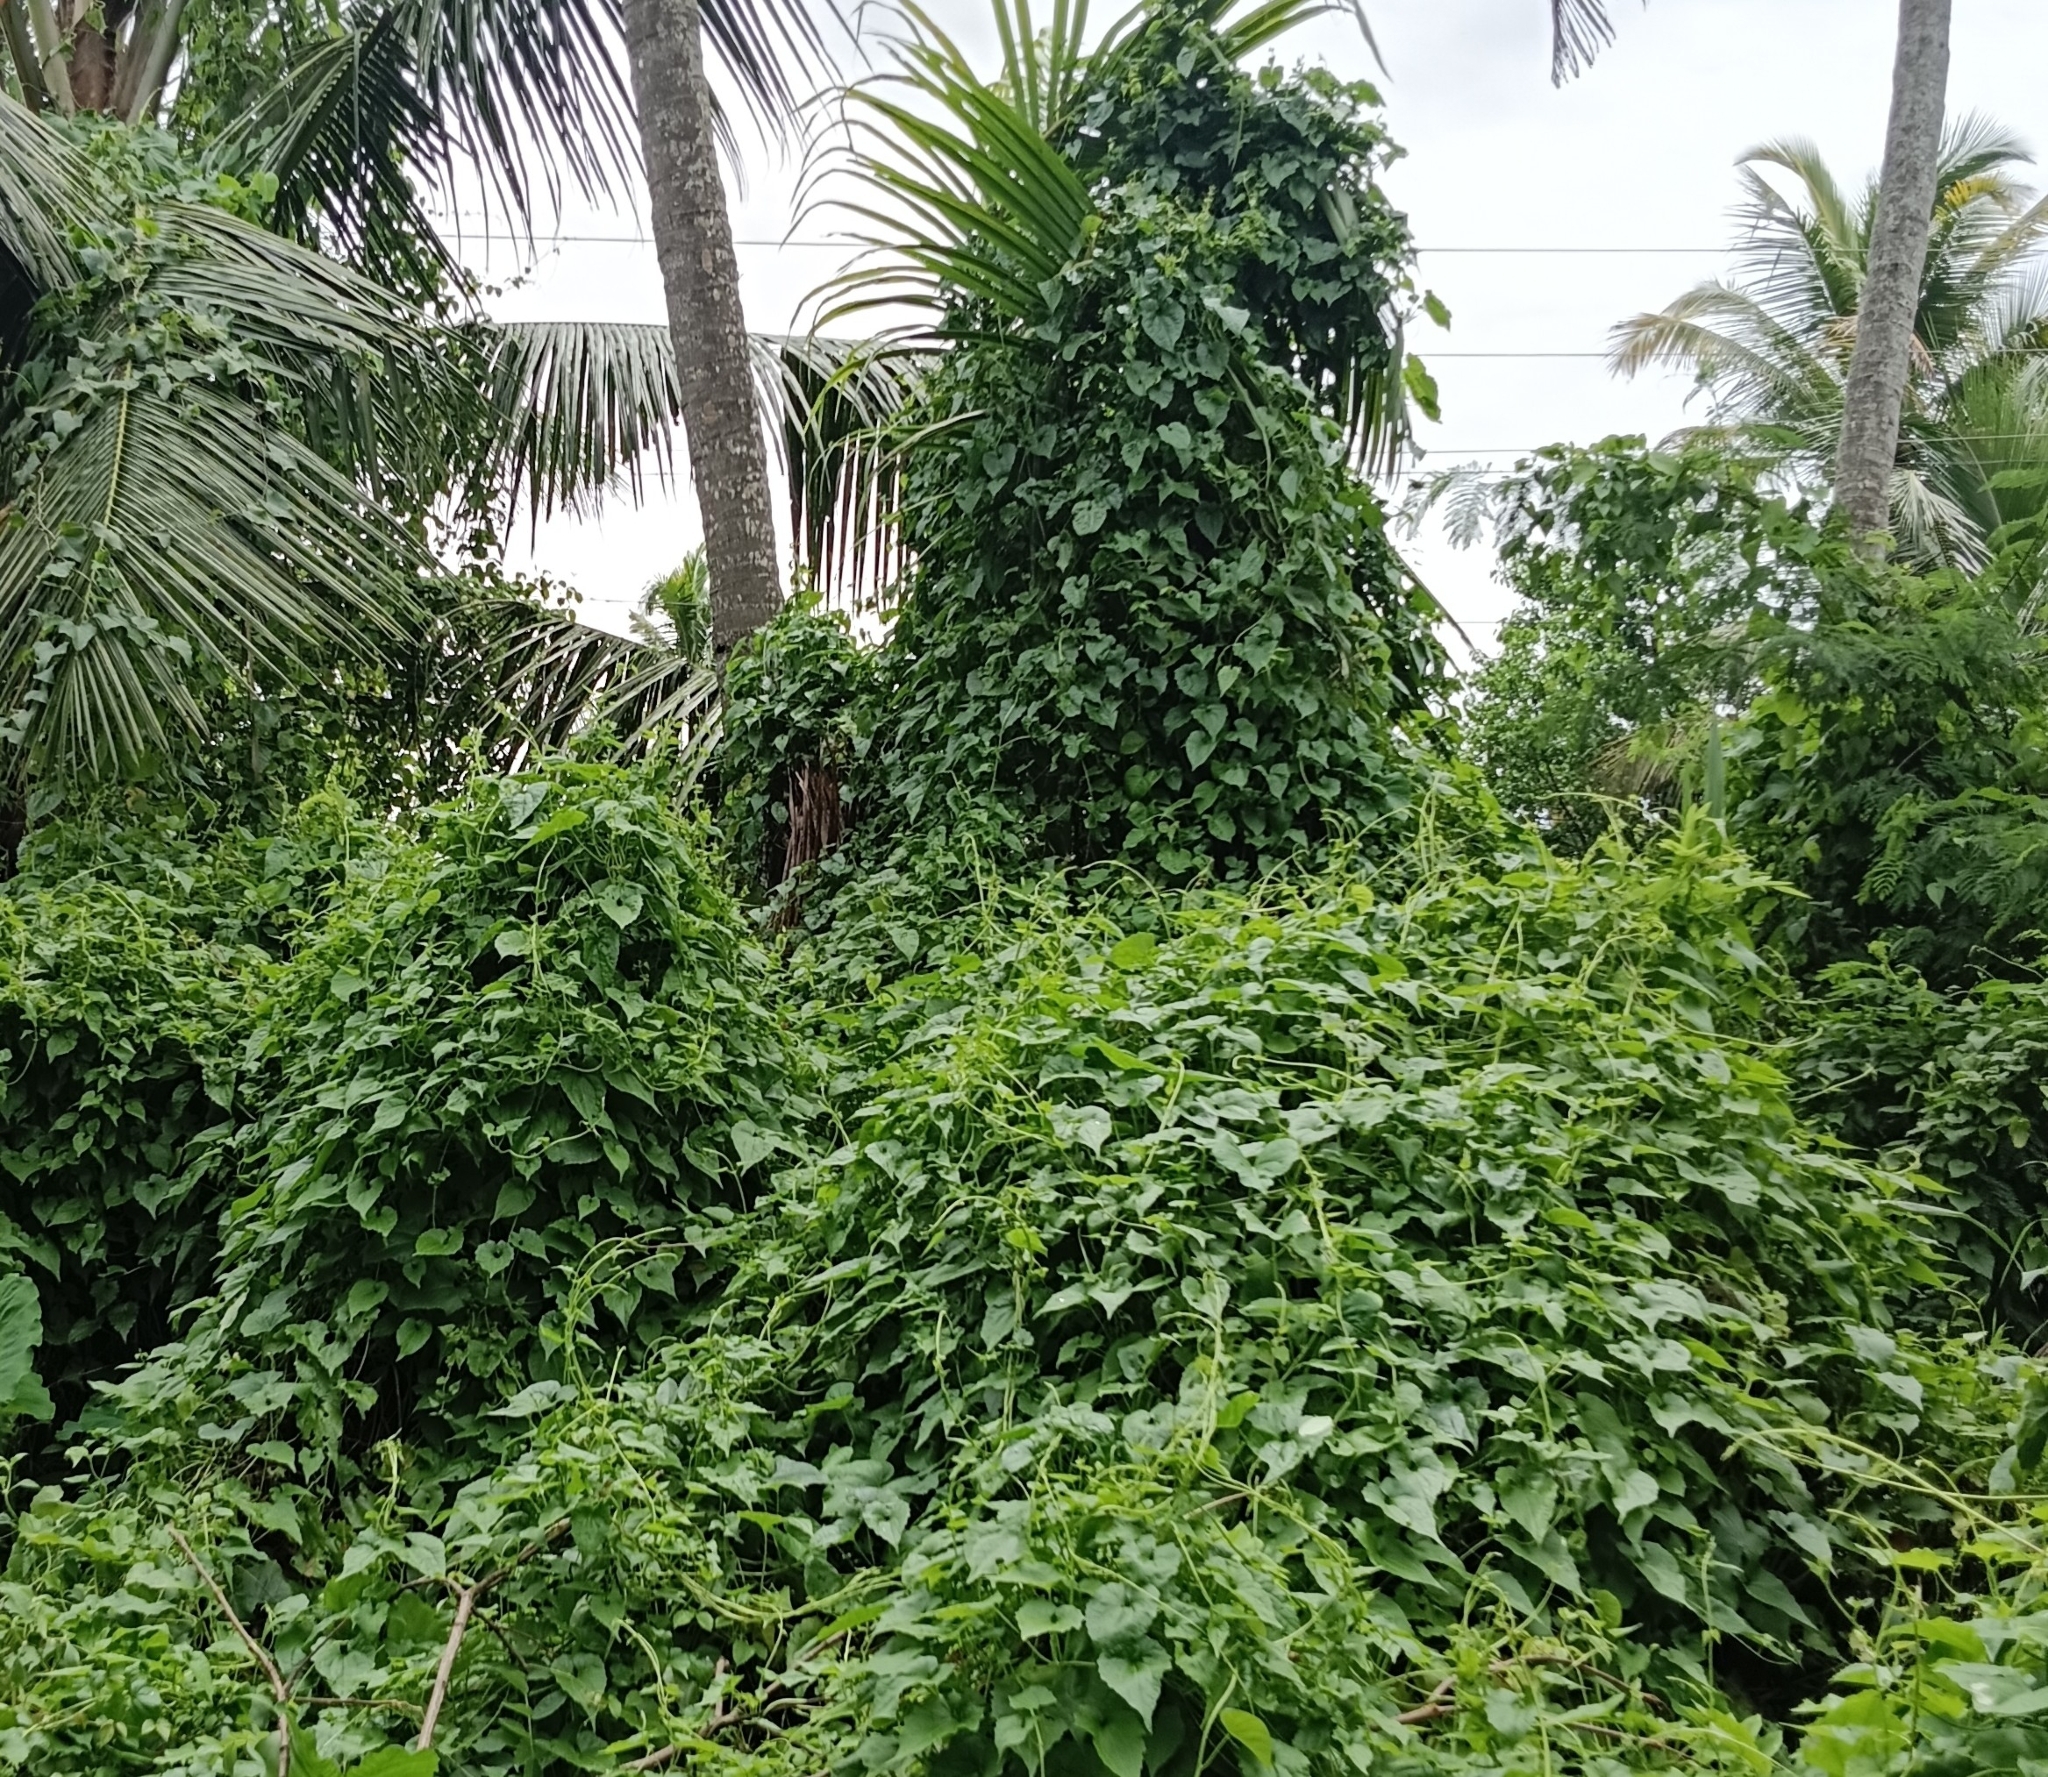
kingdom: Plantae
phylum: Tracheophyta
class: Magnoliopsida
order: Asterales
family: Asteraceae
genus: Mikania
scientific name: Mikania micrantha
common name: Mile-a-minute
